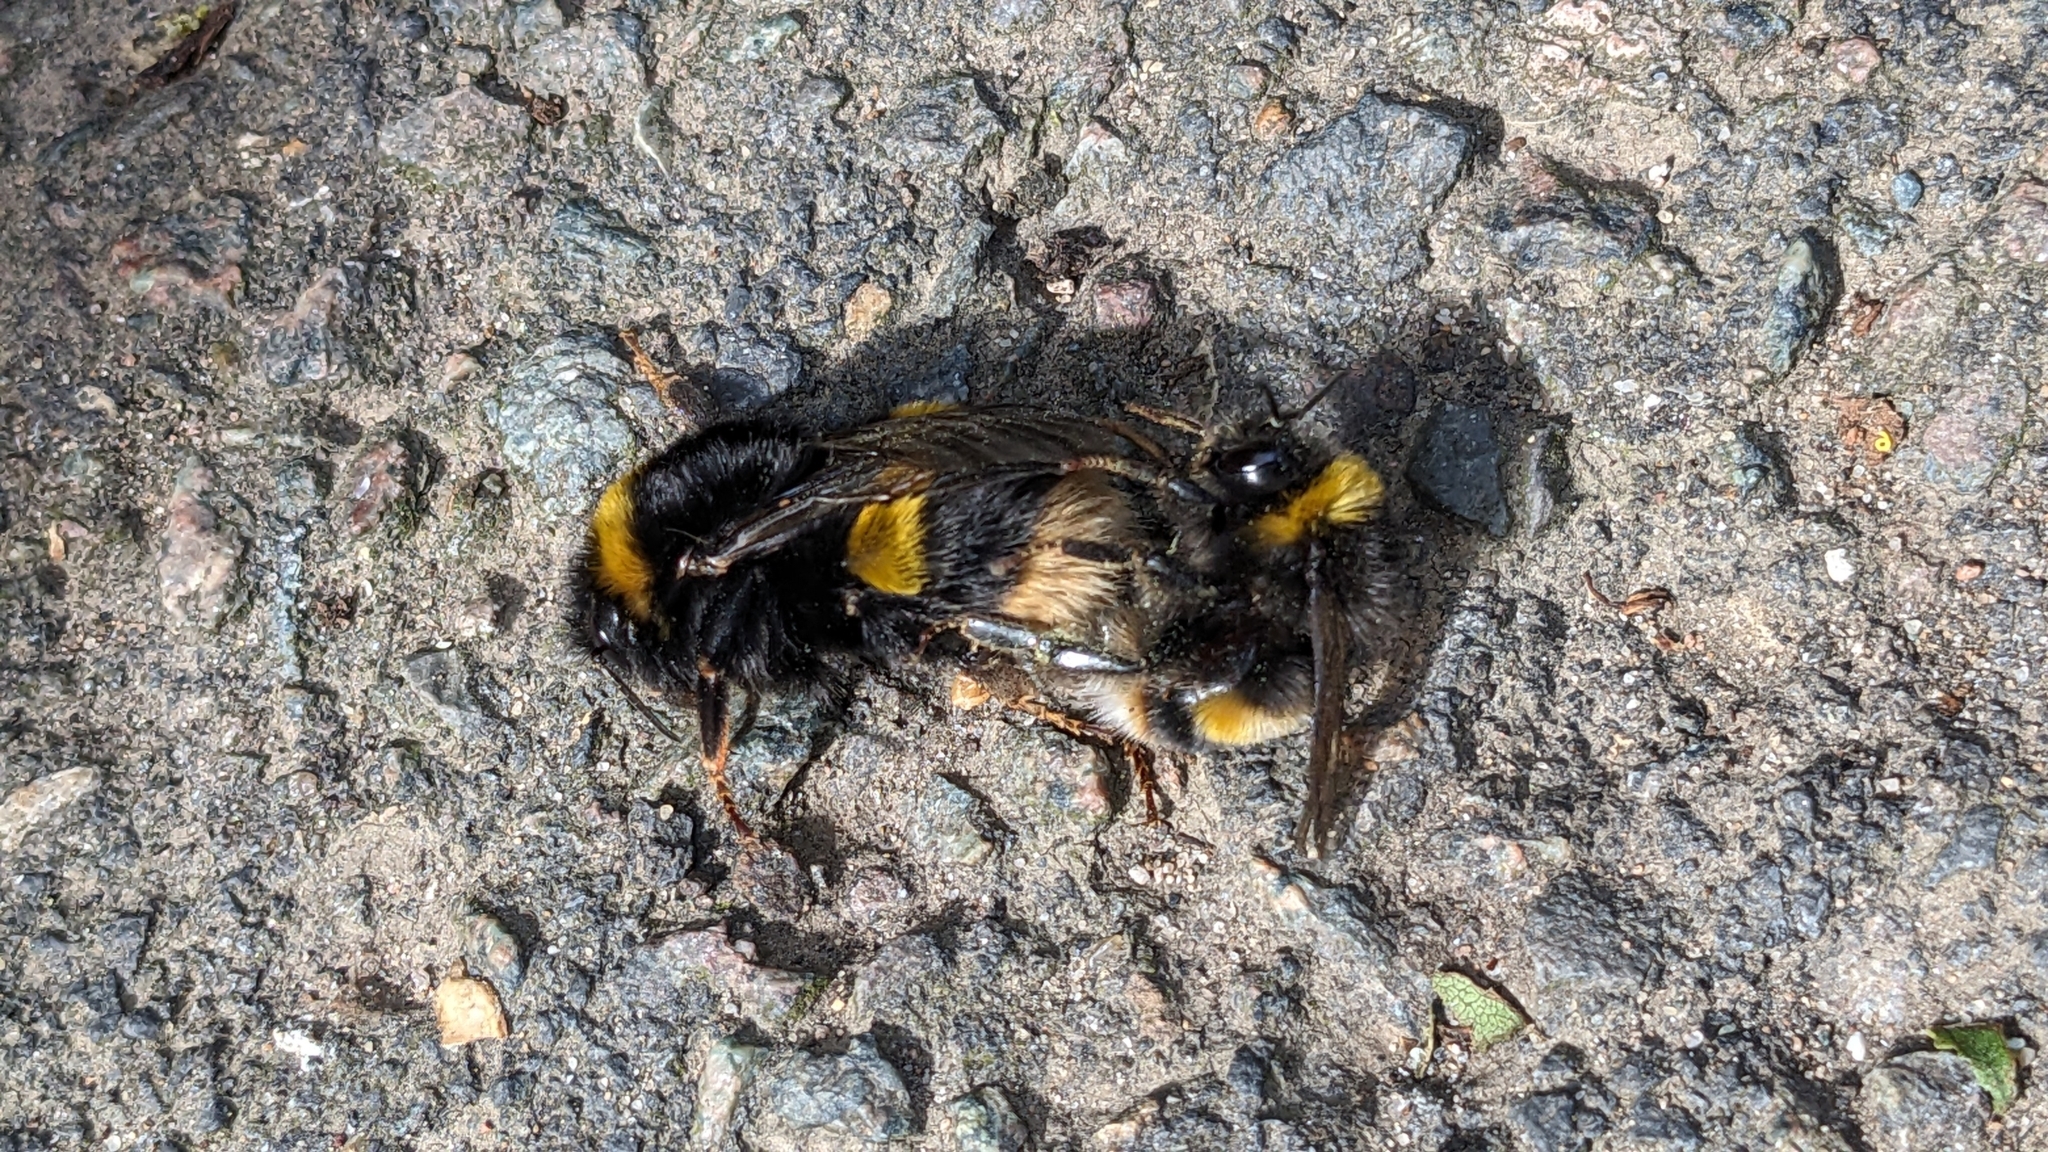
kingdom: Animalia
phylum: Arthropoda
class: Insecta
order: Hymenoptera
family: Apidae
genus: Bombus
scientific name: Bombus terrestris
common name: Buff-tailed bumblebee
